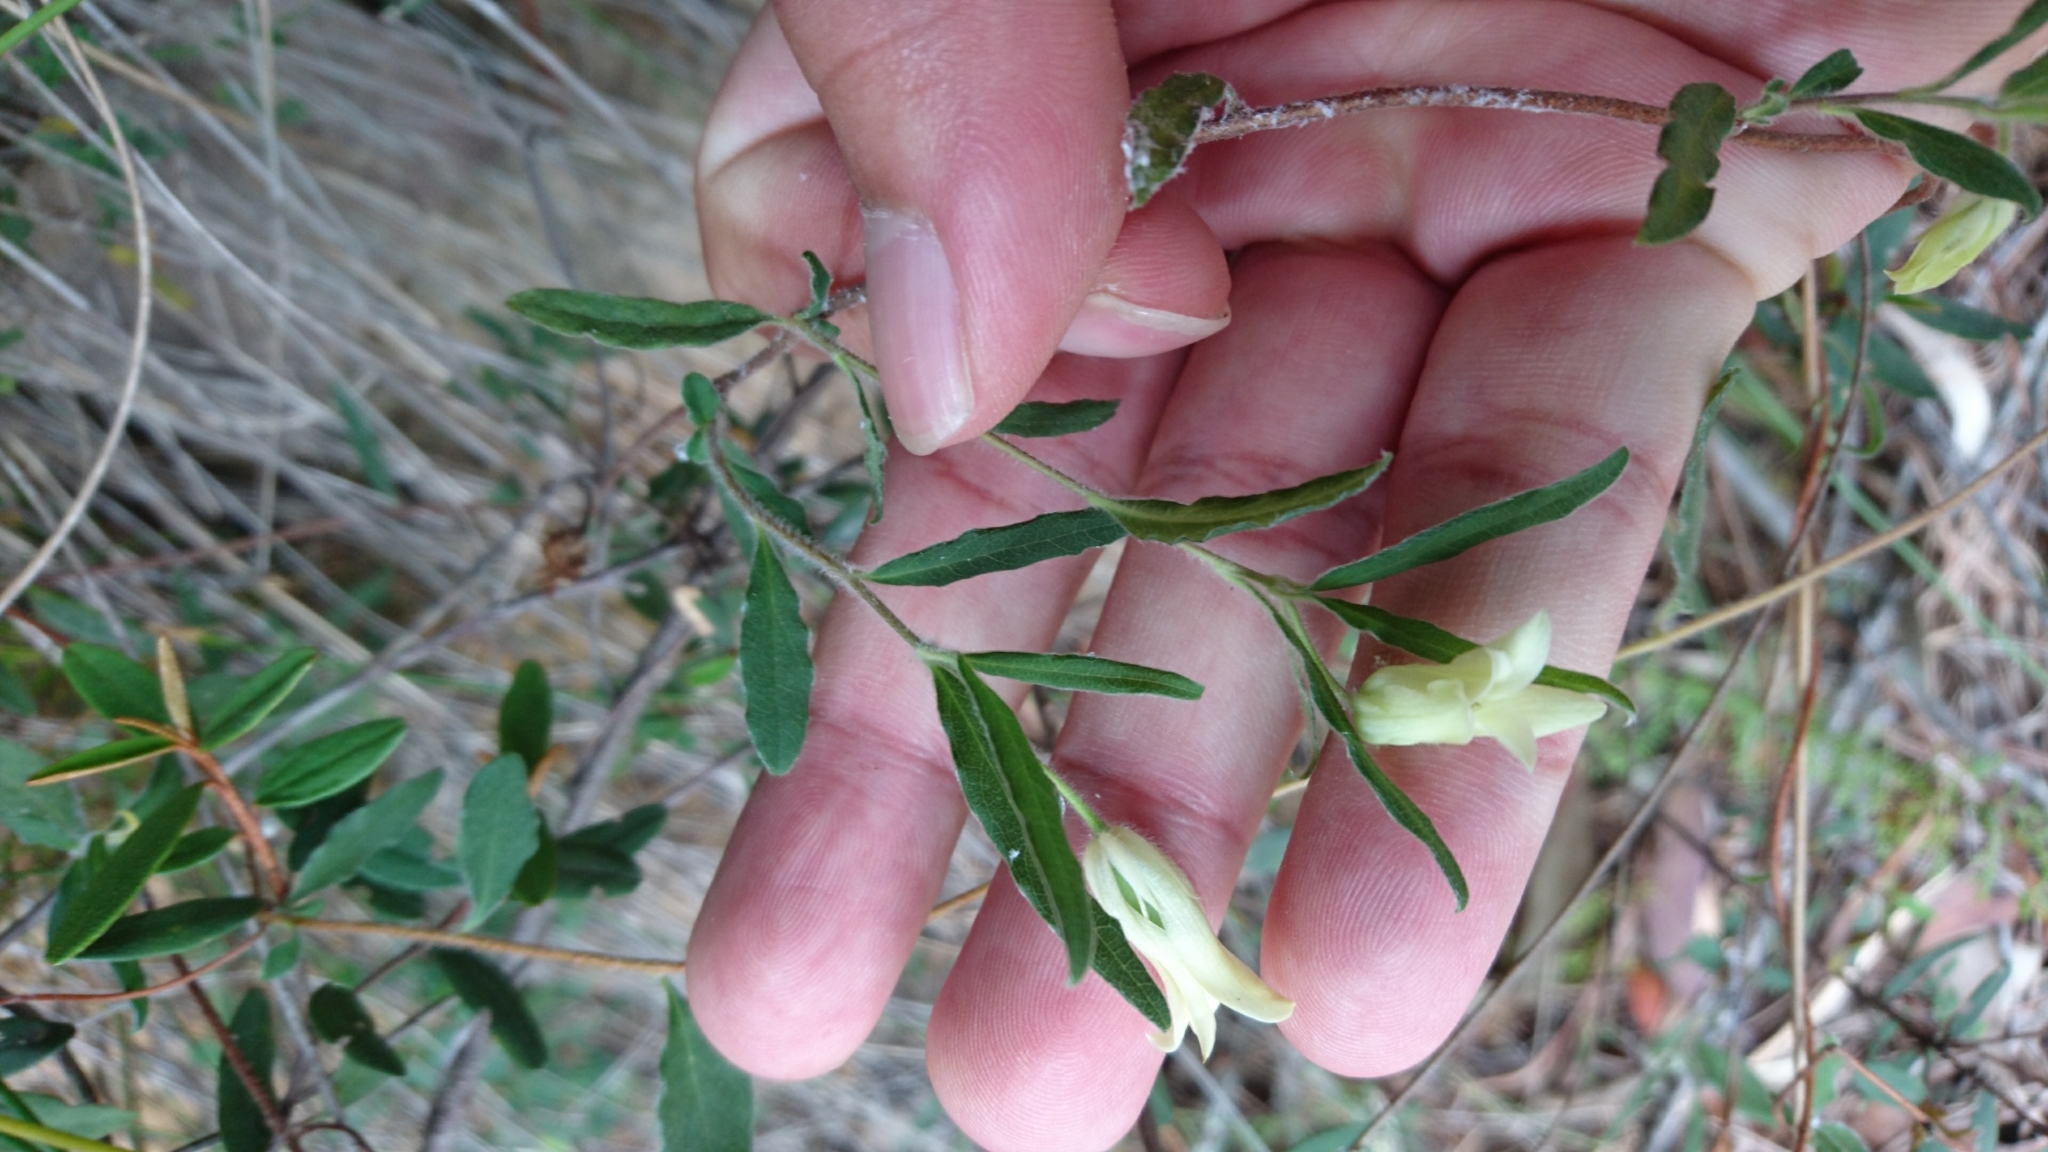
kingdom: Plantae
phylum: Tracheophyta
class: Magnoliopsida
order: Apiales
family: Pittosporaceae
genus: Billardiera
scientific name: Billardiera scandens
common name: Apple-berry
